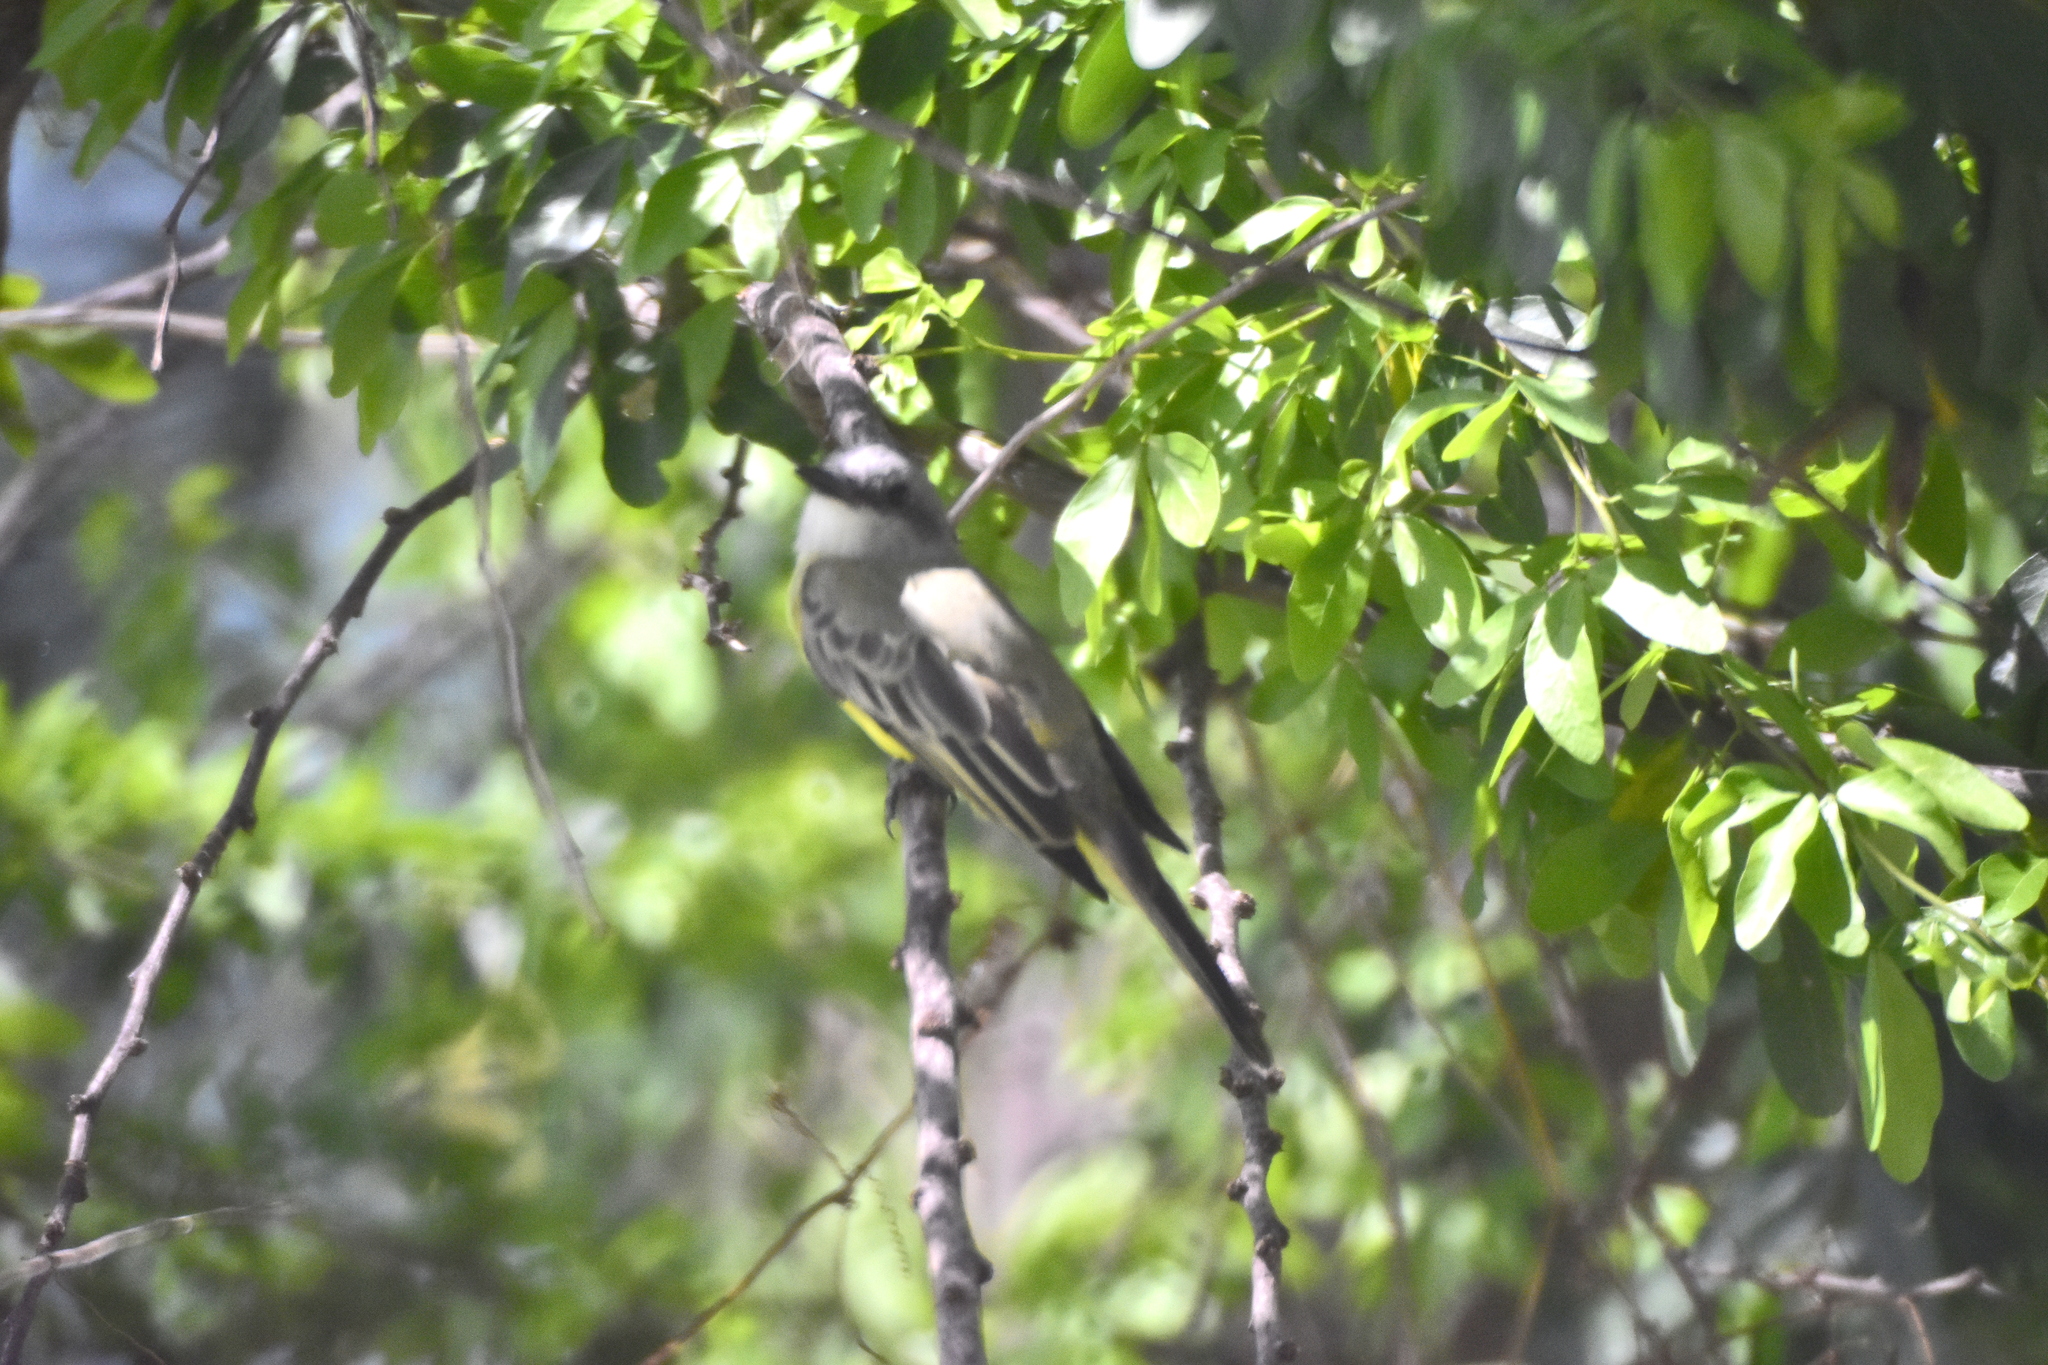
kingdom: Animalia
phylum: Chordata
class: Aves
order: Passeriformes
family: Tyrannidae
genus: Tyrannus
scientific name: Tyrannus melancholicus
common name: Tropical kingbird
